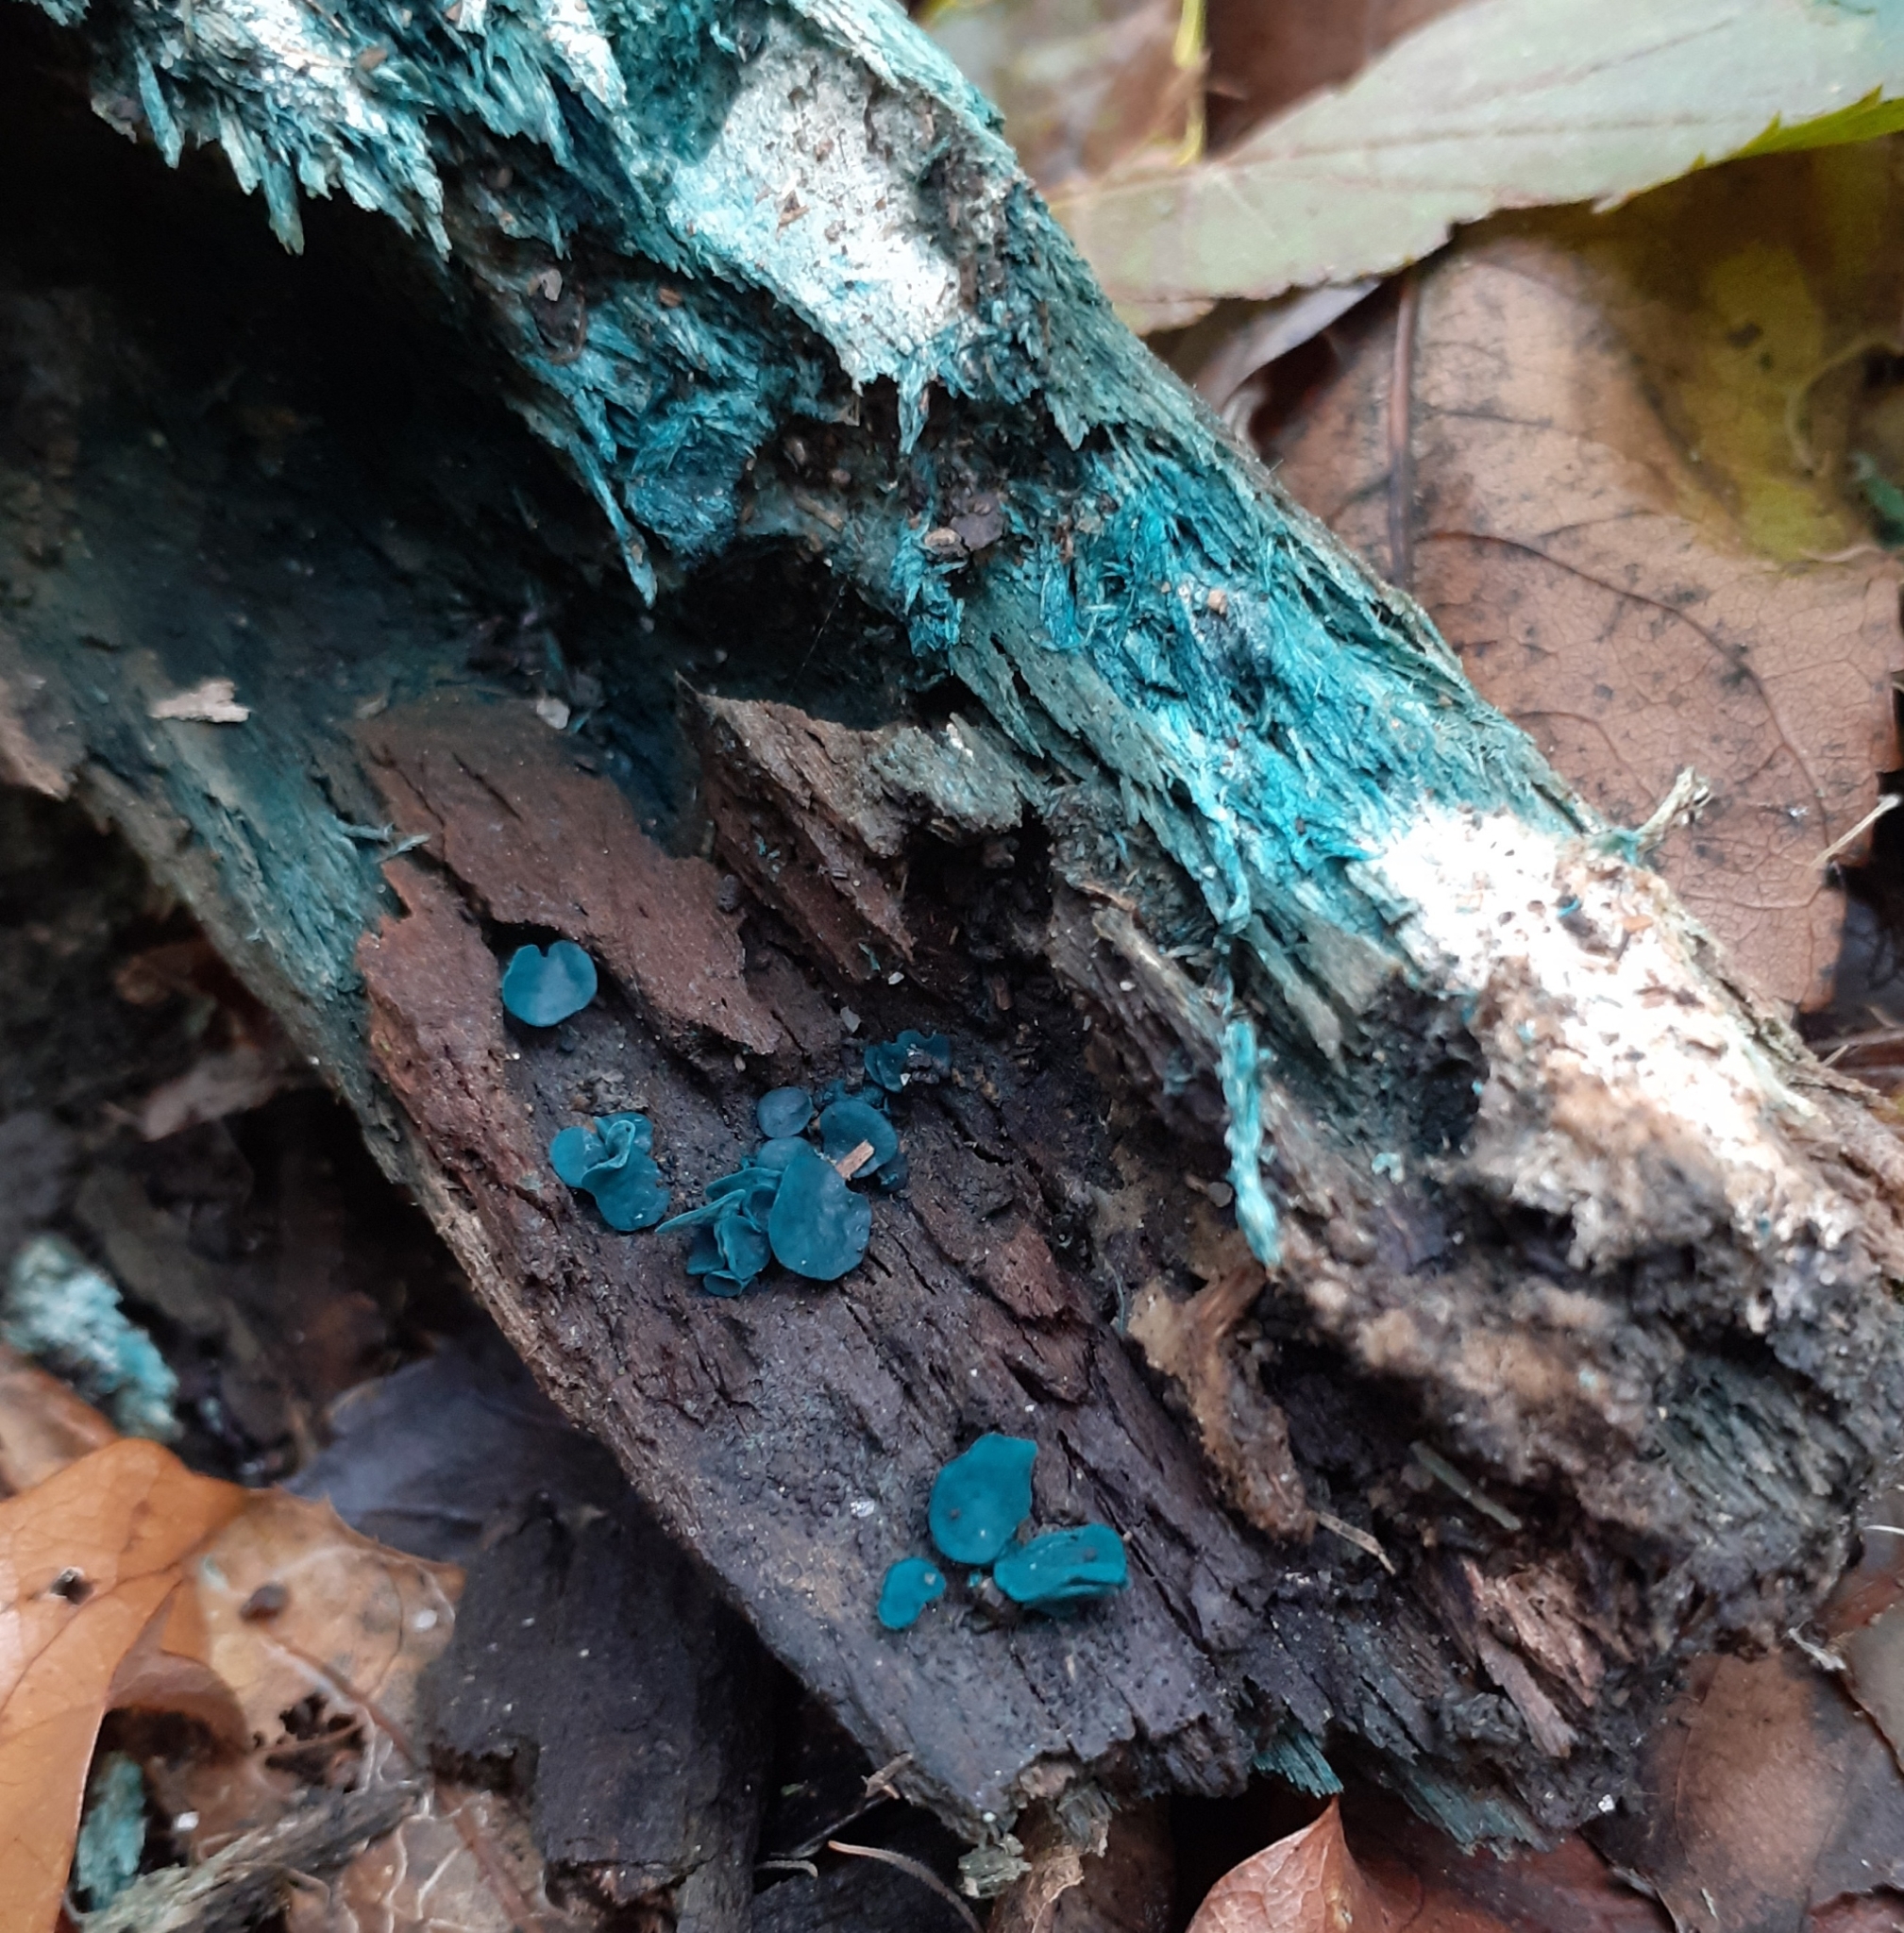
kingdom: Fungi
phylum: Ascomycota
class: Leotiomycetes
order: Helotiales
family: Chlorociboriaceae
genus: Chlorociboria
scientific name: Chlorociboria aeruginascens
